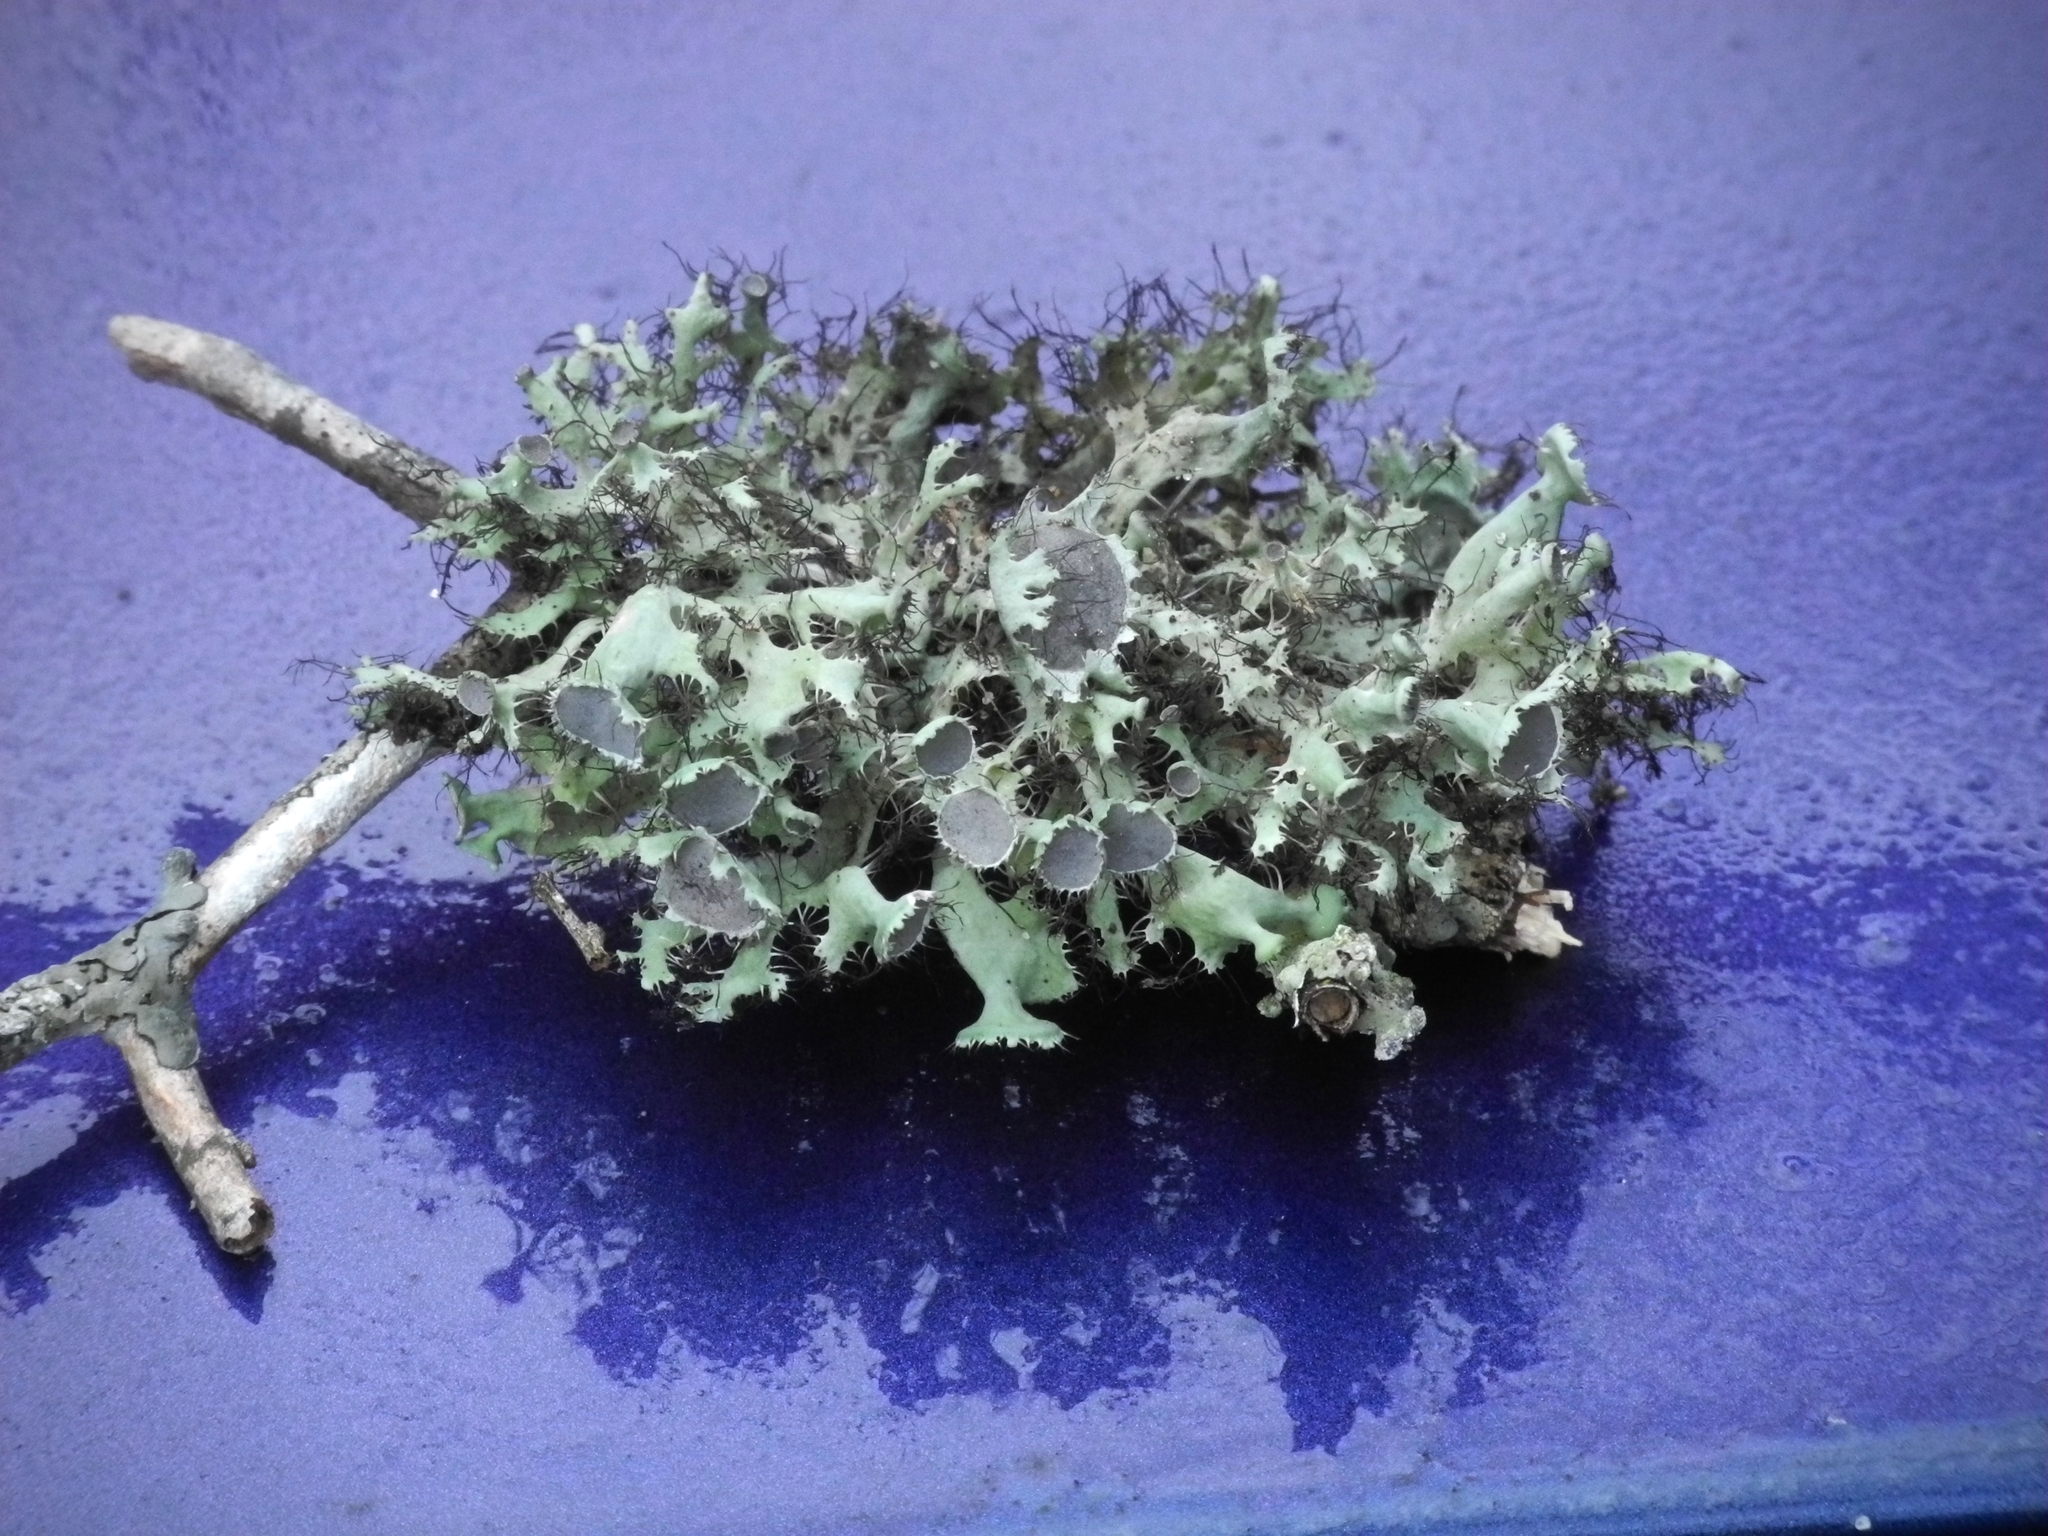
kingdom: Fungi
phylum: Ascomycota
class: Lecanoromycetes
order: Caliciales
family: Physciaceae
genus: Heterodermia
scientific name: Heterodermia echinata
